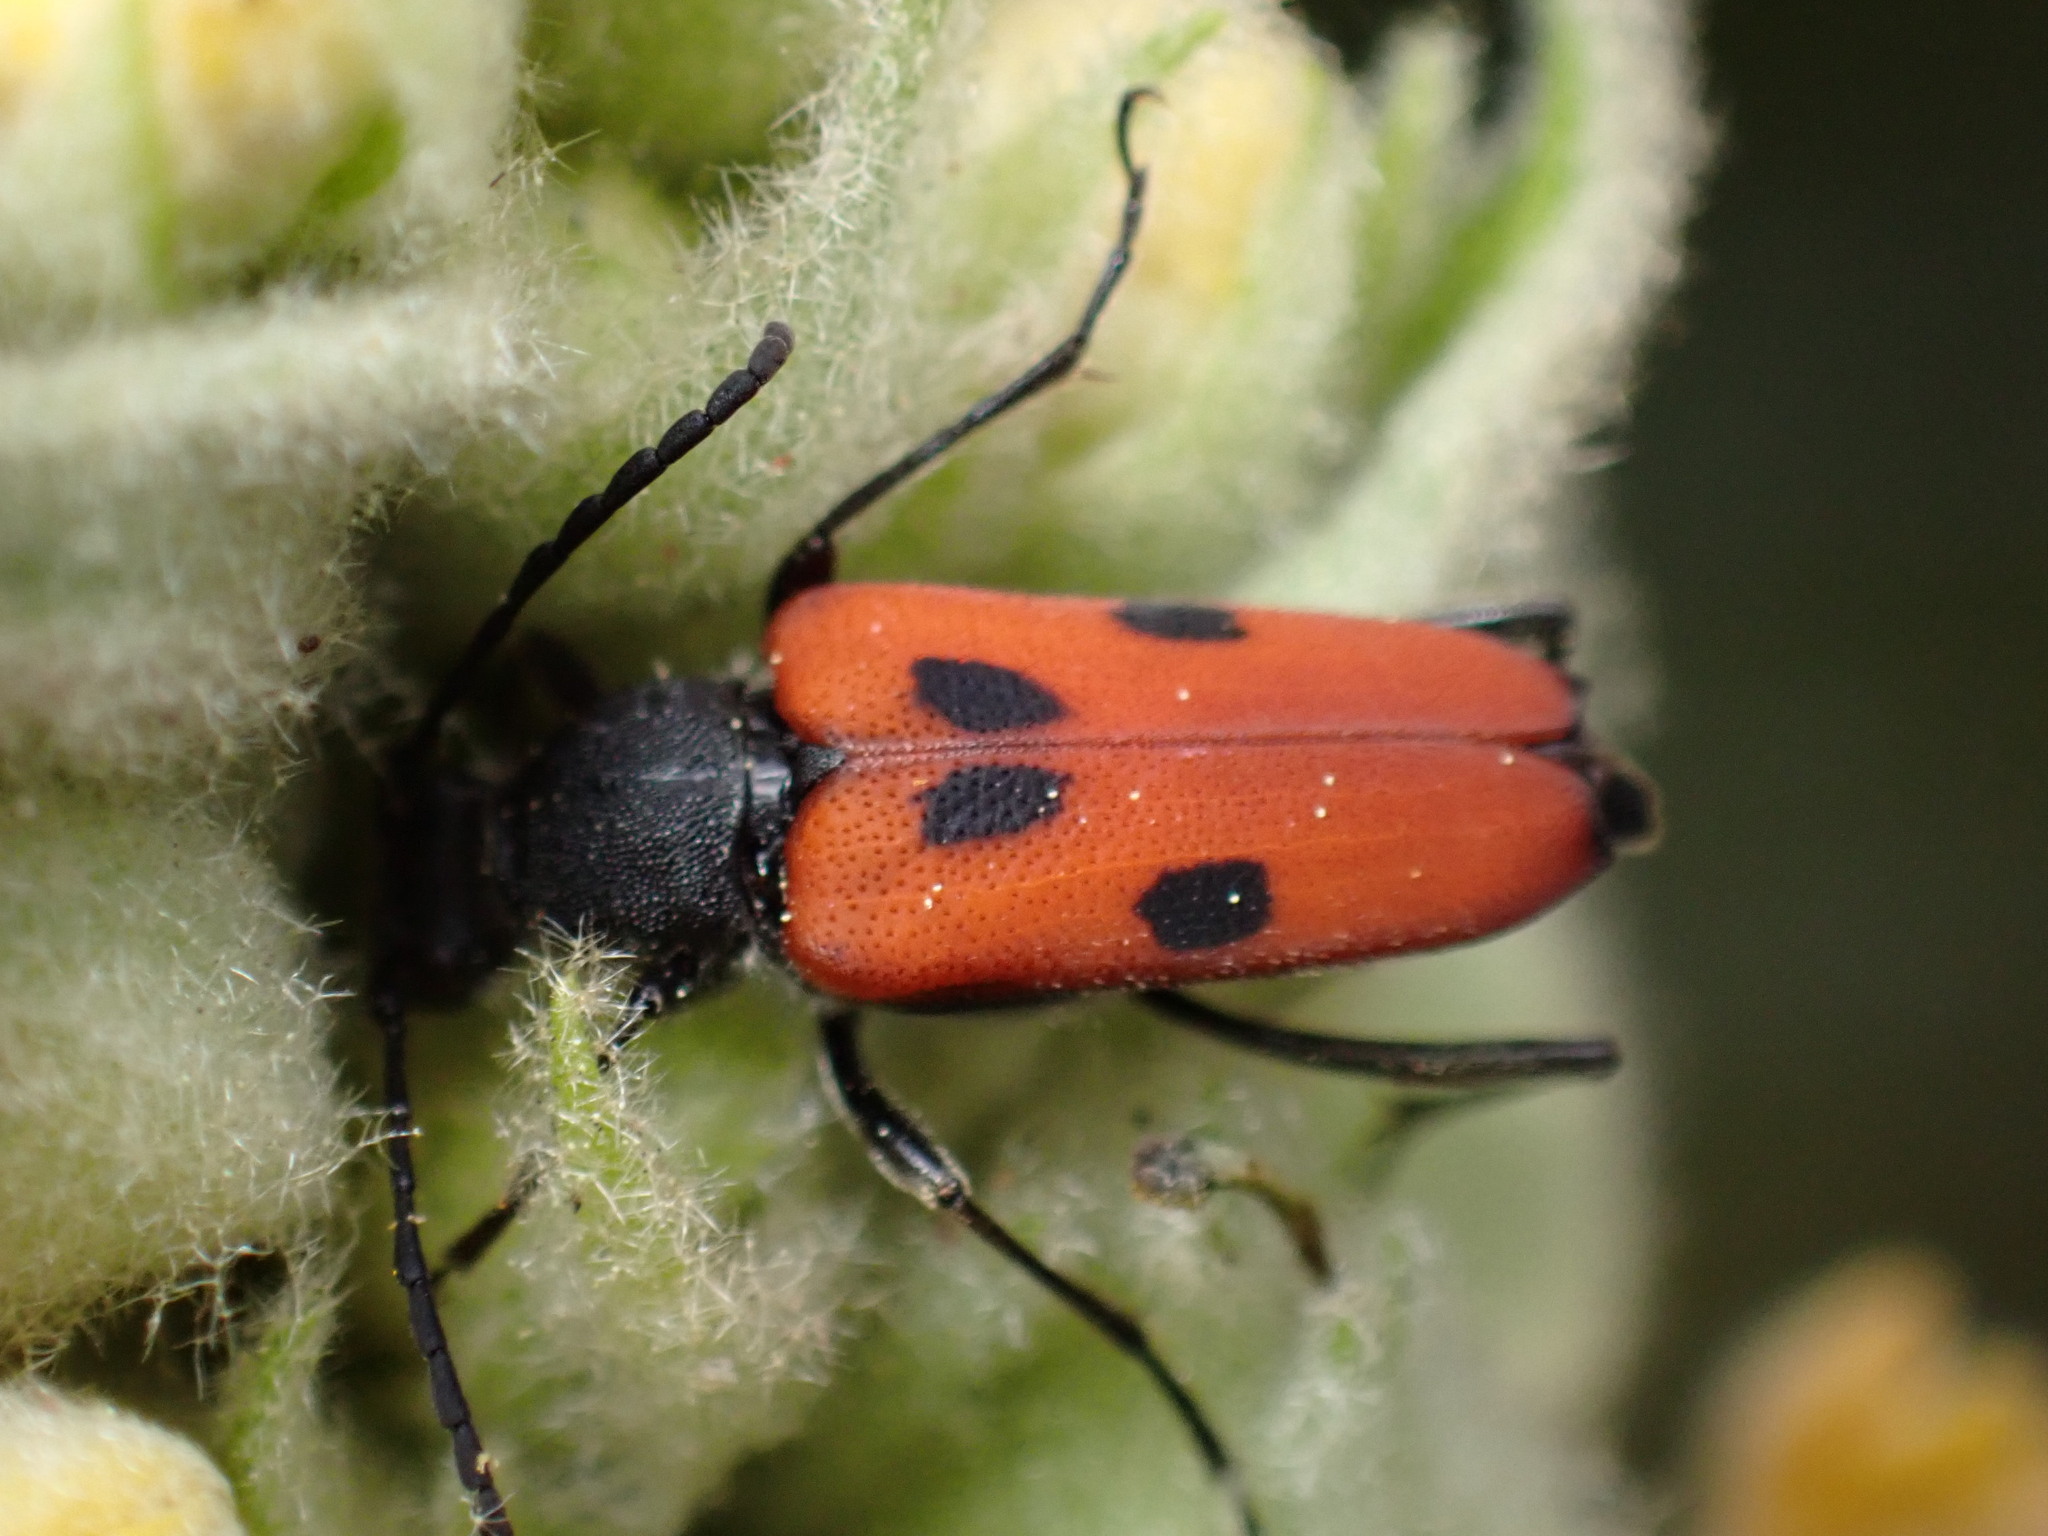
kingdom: Animalia
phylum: Arthropoda
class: Insecta
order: Coleoptera
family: Cerambycidae
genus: Anastrangalia
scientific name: Anastrangalia laetifica
